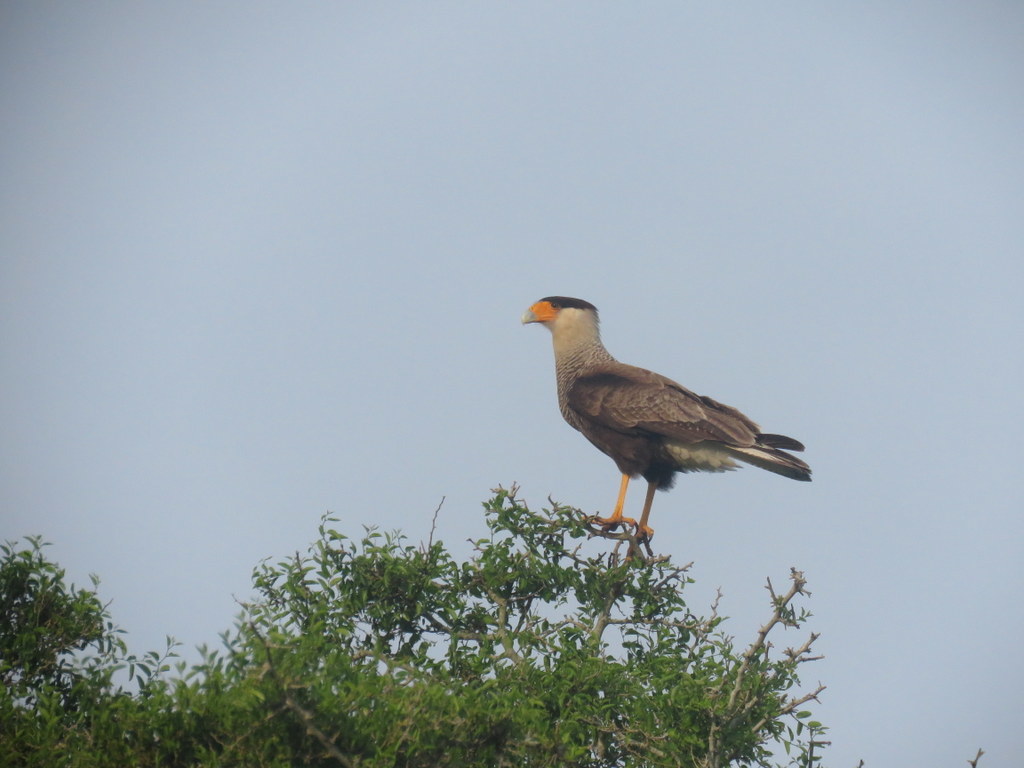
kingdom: Animalia
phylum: Chordata
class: Aves
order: Falconiformes
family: Falconidae
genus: Caracara
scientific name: Caracara plancus
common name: Southern caracara
